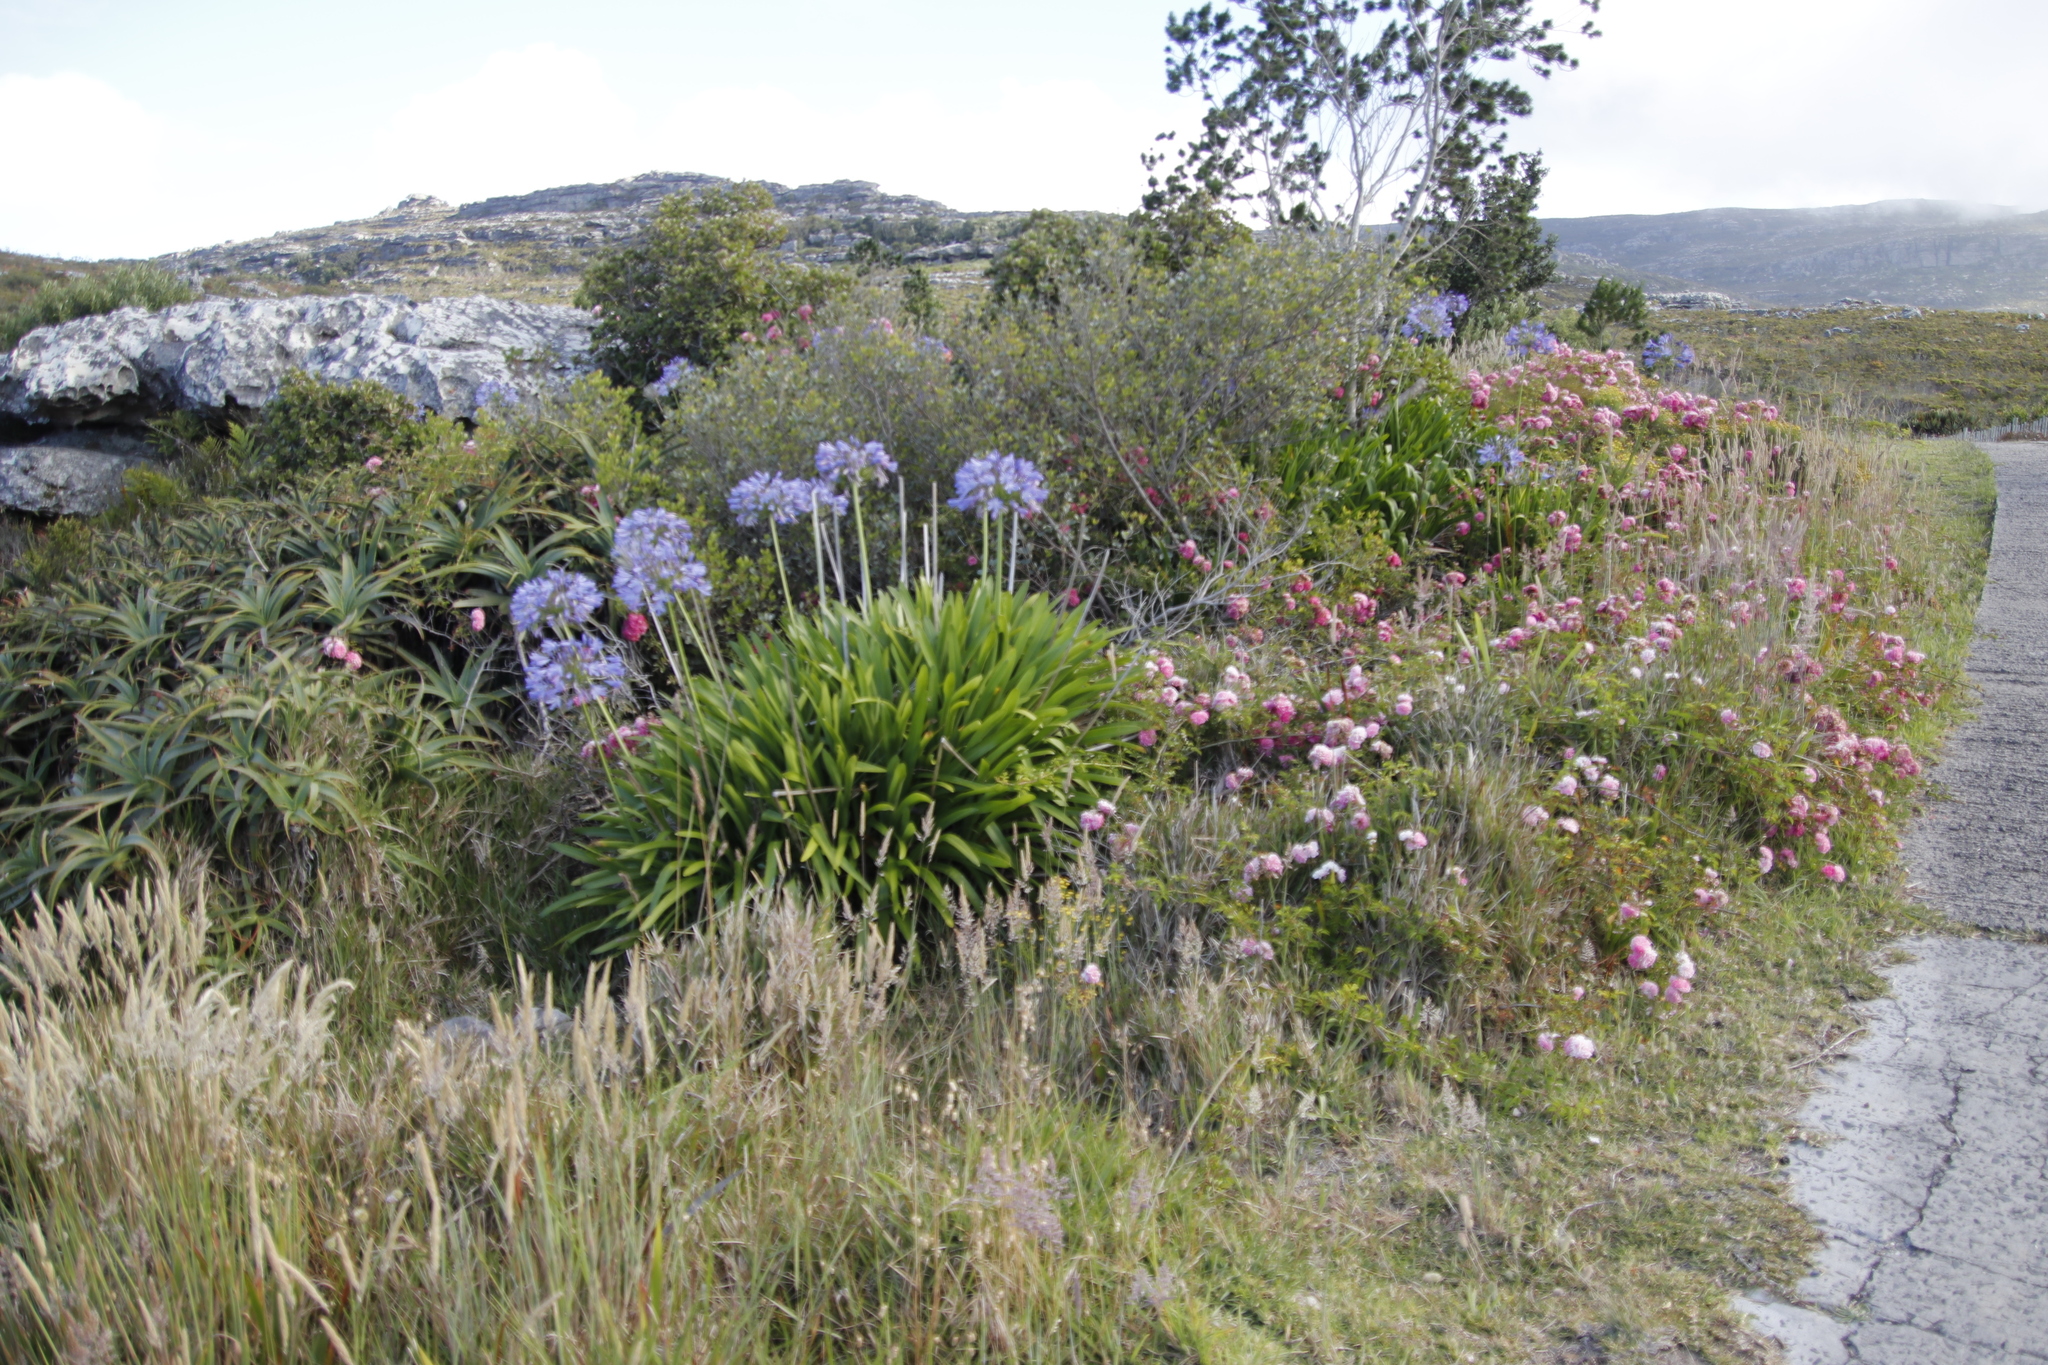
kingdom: Plantae
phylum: Tracheophyta
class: Liliopsida
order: Asparagales
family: Amaryllidaceae
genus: Agapanthus
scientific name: Agapanthus praecox
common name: African-lily
